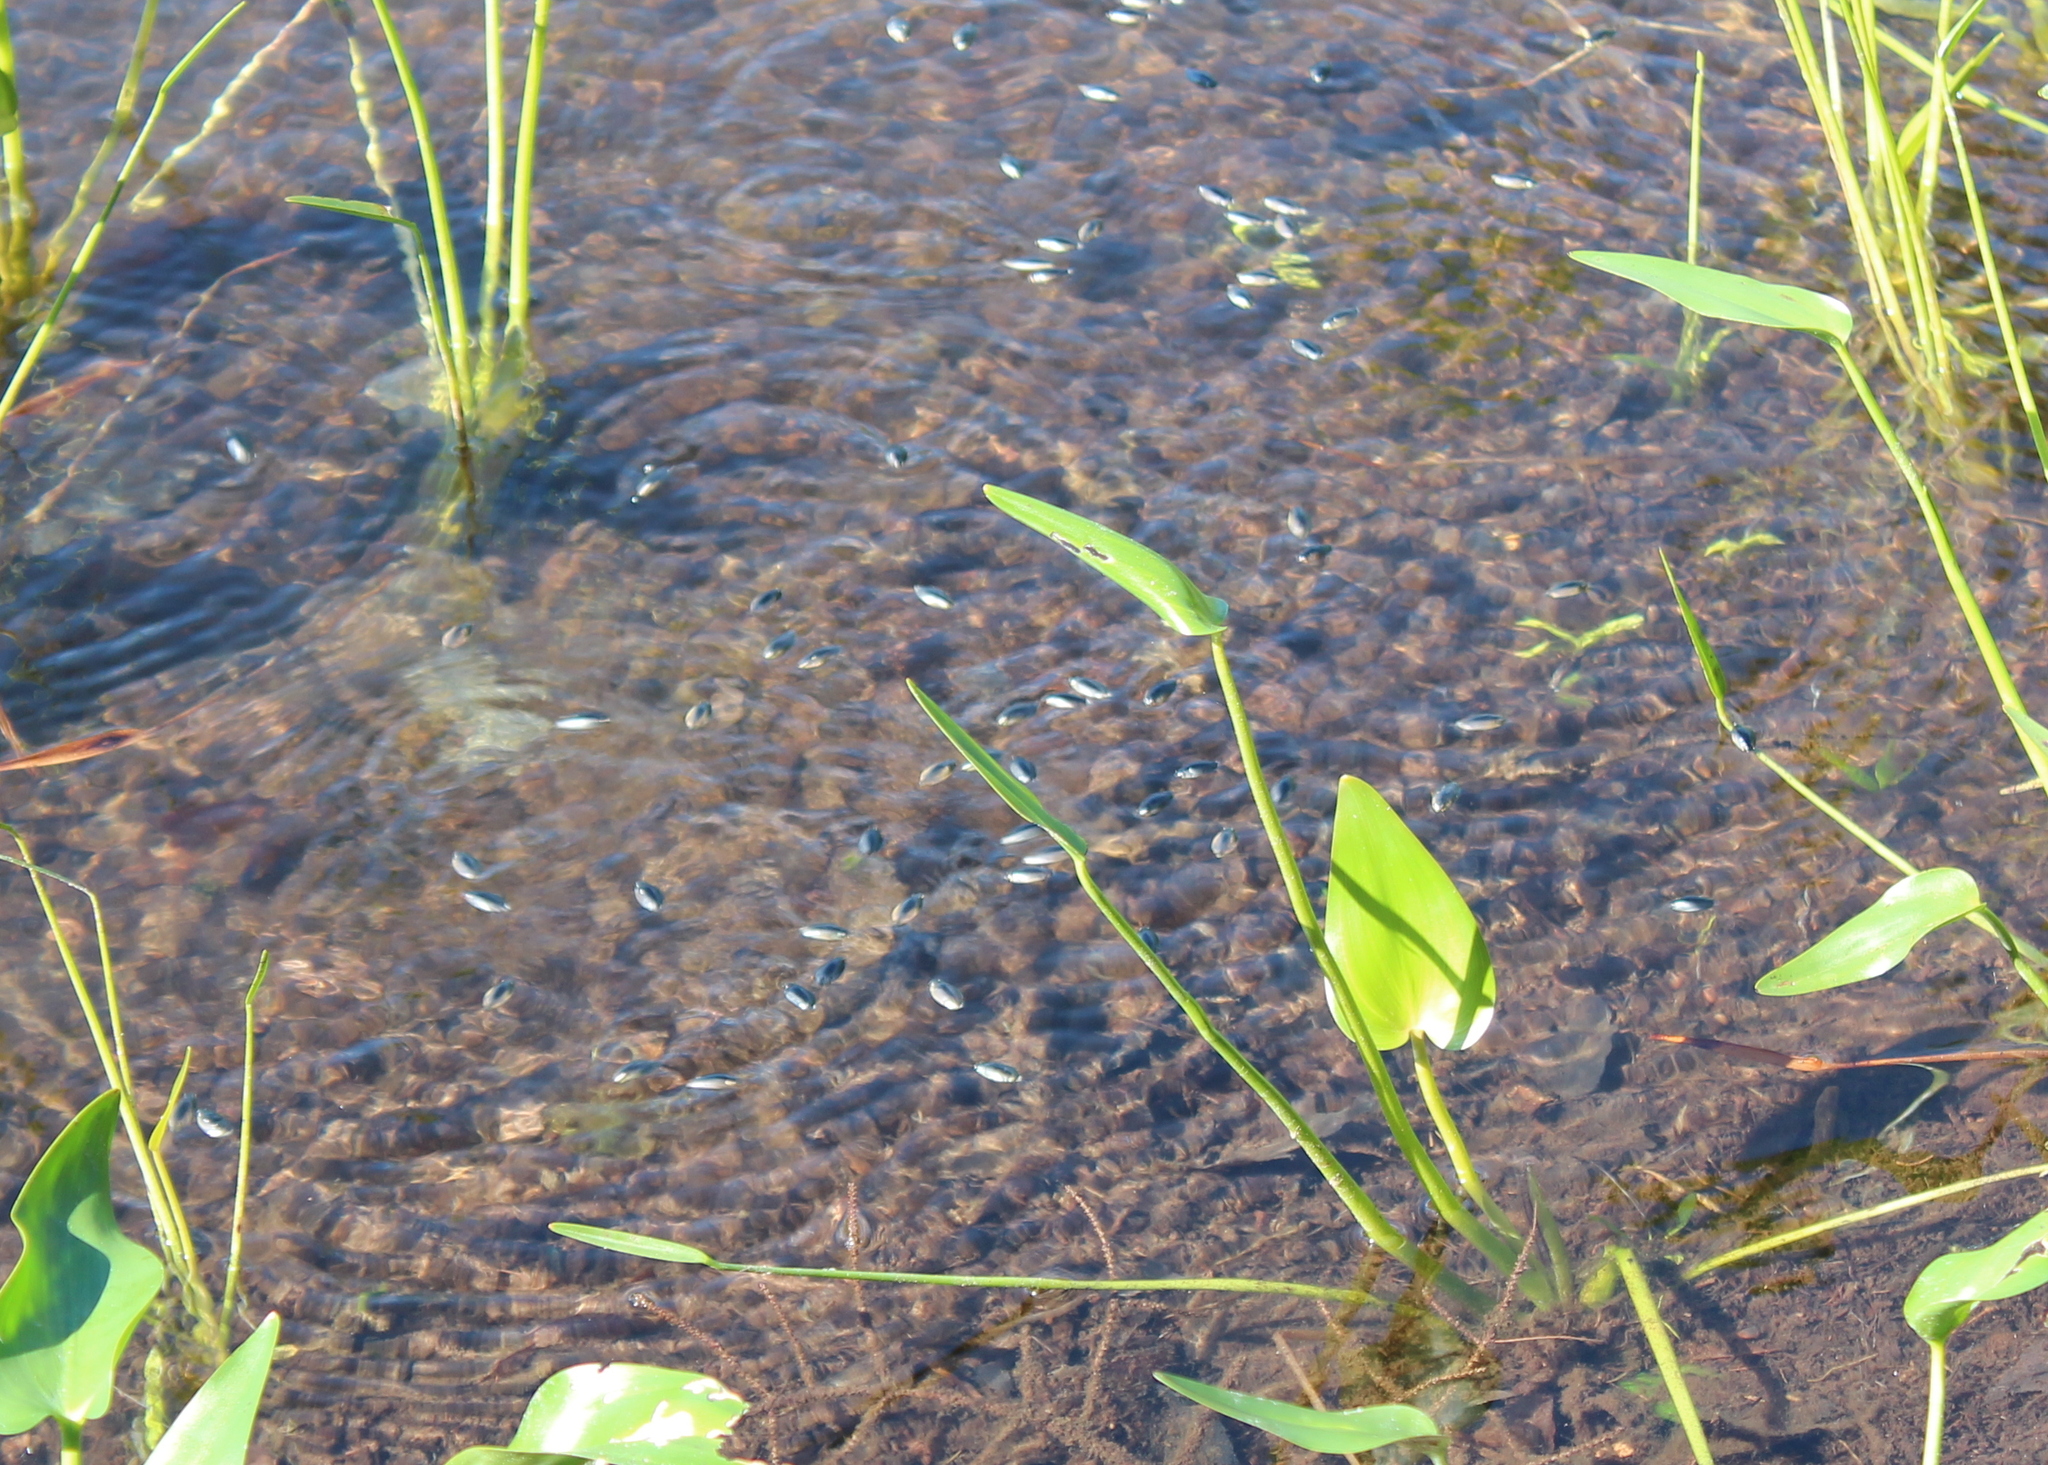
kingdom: Animalia
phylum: Arthropoda
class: Insecta
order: Coleoptera
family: Gyrinidae
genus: Dineutus
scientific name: Dineutus
